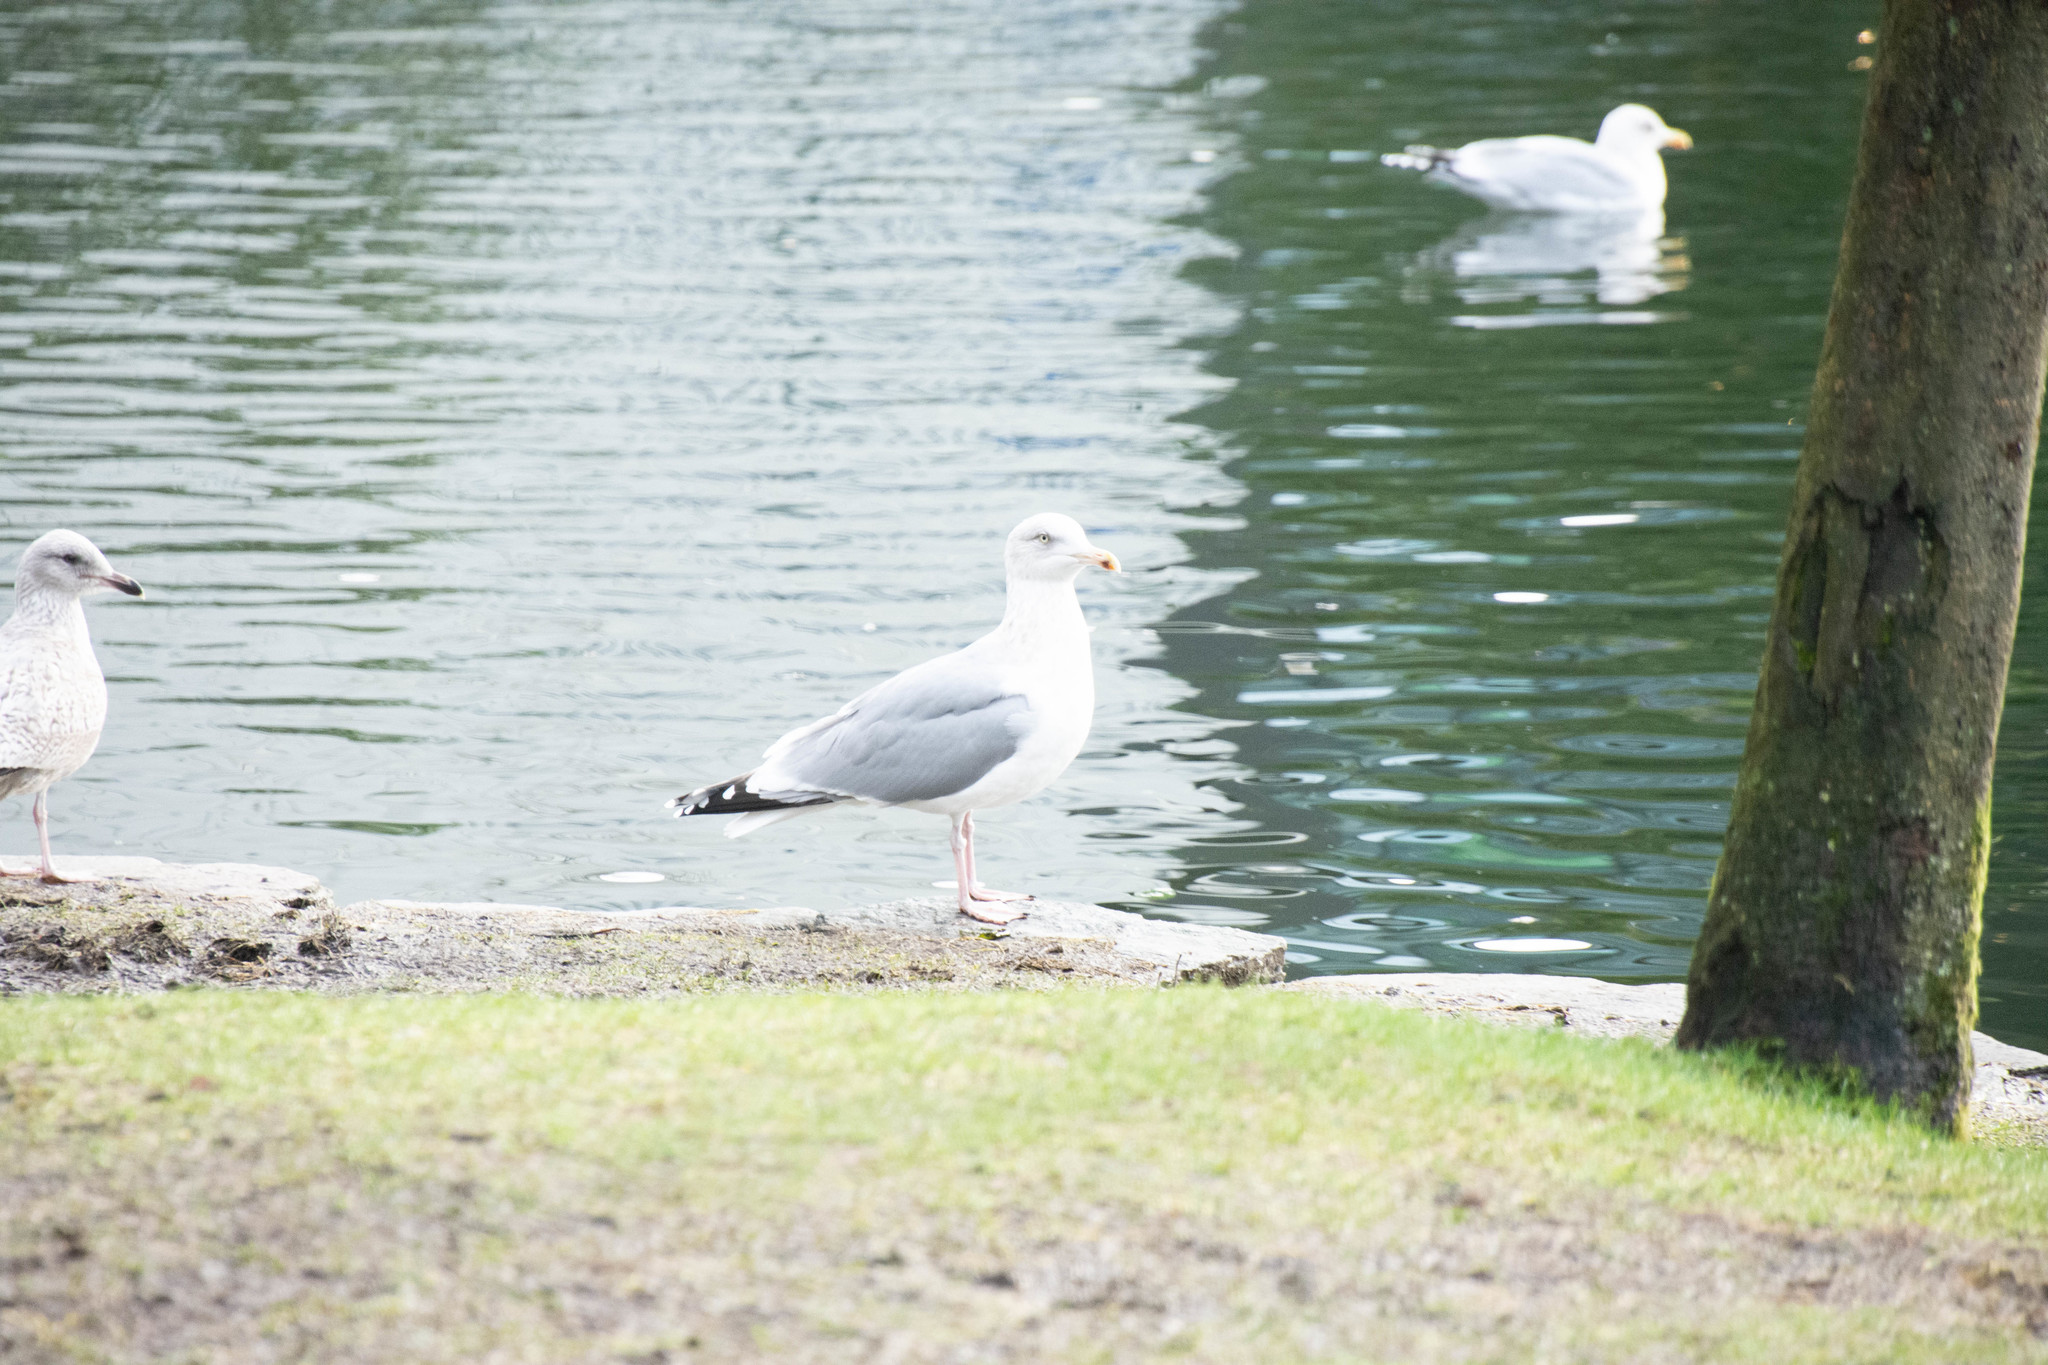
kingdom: Animalia
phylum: Chordata
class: Aves
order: Charadriiformes
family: Laridae
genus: Larus
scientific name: Larus argentatus
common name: Herring gull
